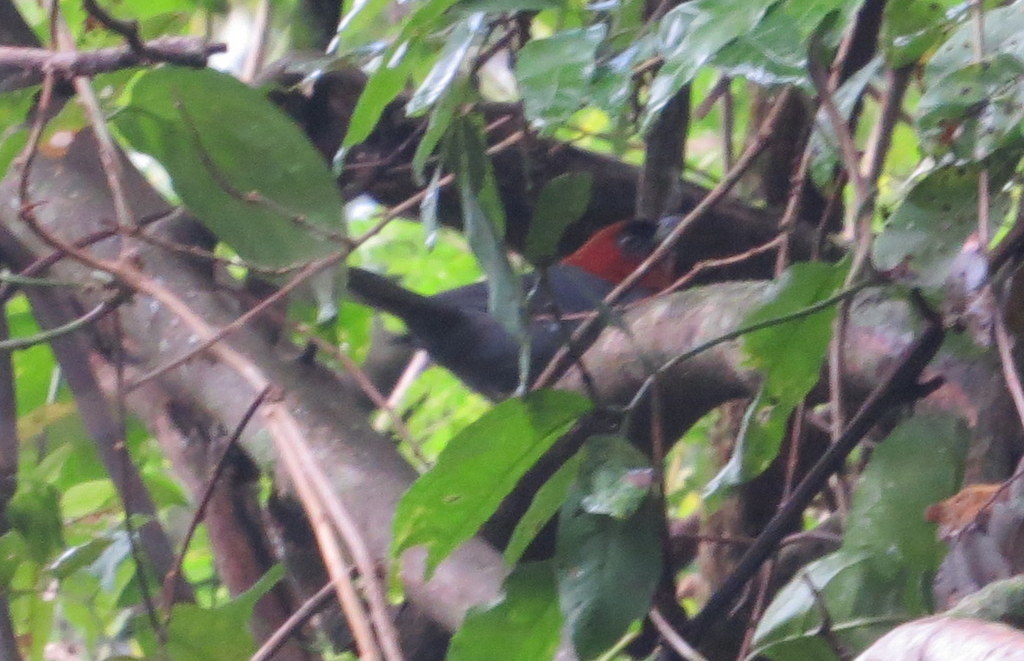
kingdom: Animalia
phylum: Chordata
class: Aves
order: Passeriformes
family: Thraupidae
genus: Thlypopsis
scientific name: Thlypopsis pyrrhocoma
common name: Chestnut-headed tanager
